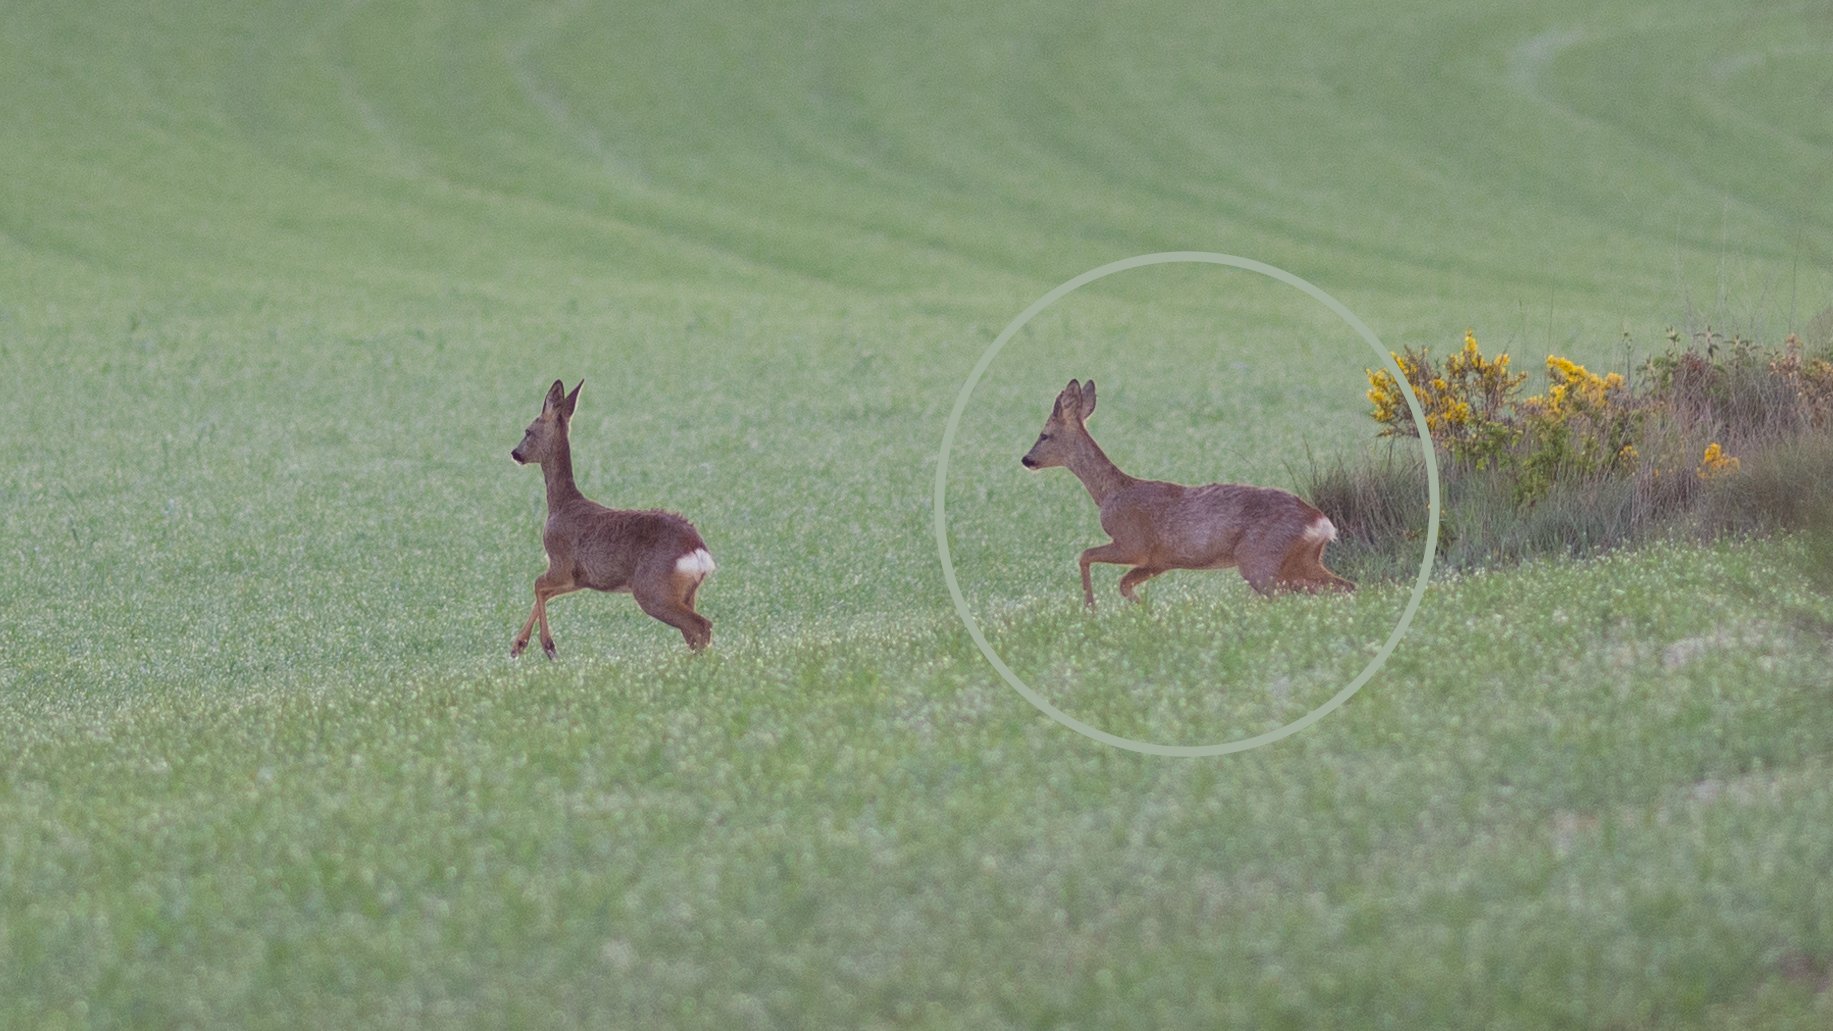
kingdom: Animalia
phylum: Chordata
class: Mammalia
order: Artiodactyla
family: Cervidae
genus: Capreolus
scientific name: Capreolus capreolus
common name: Western roe deer
